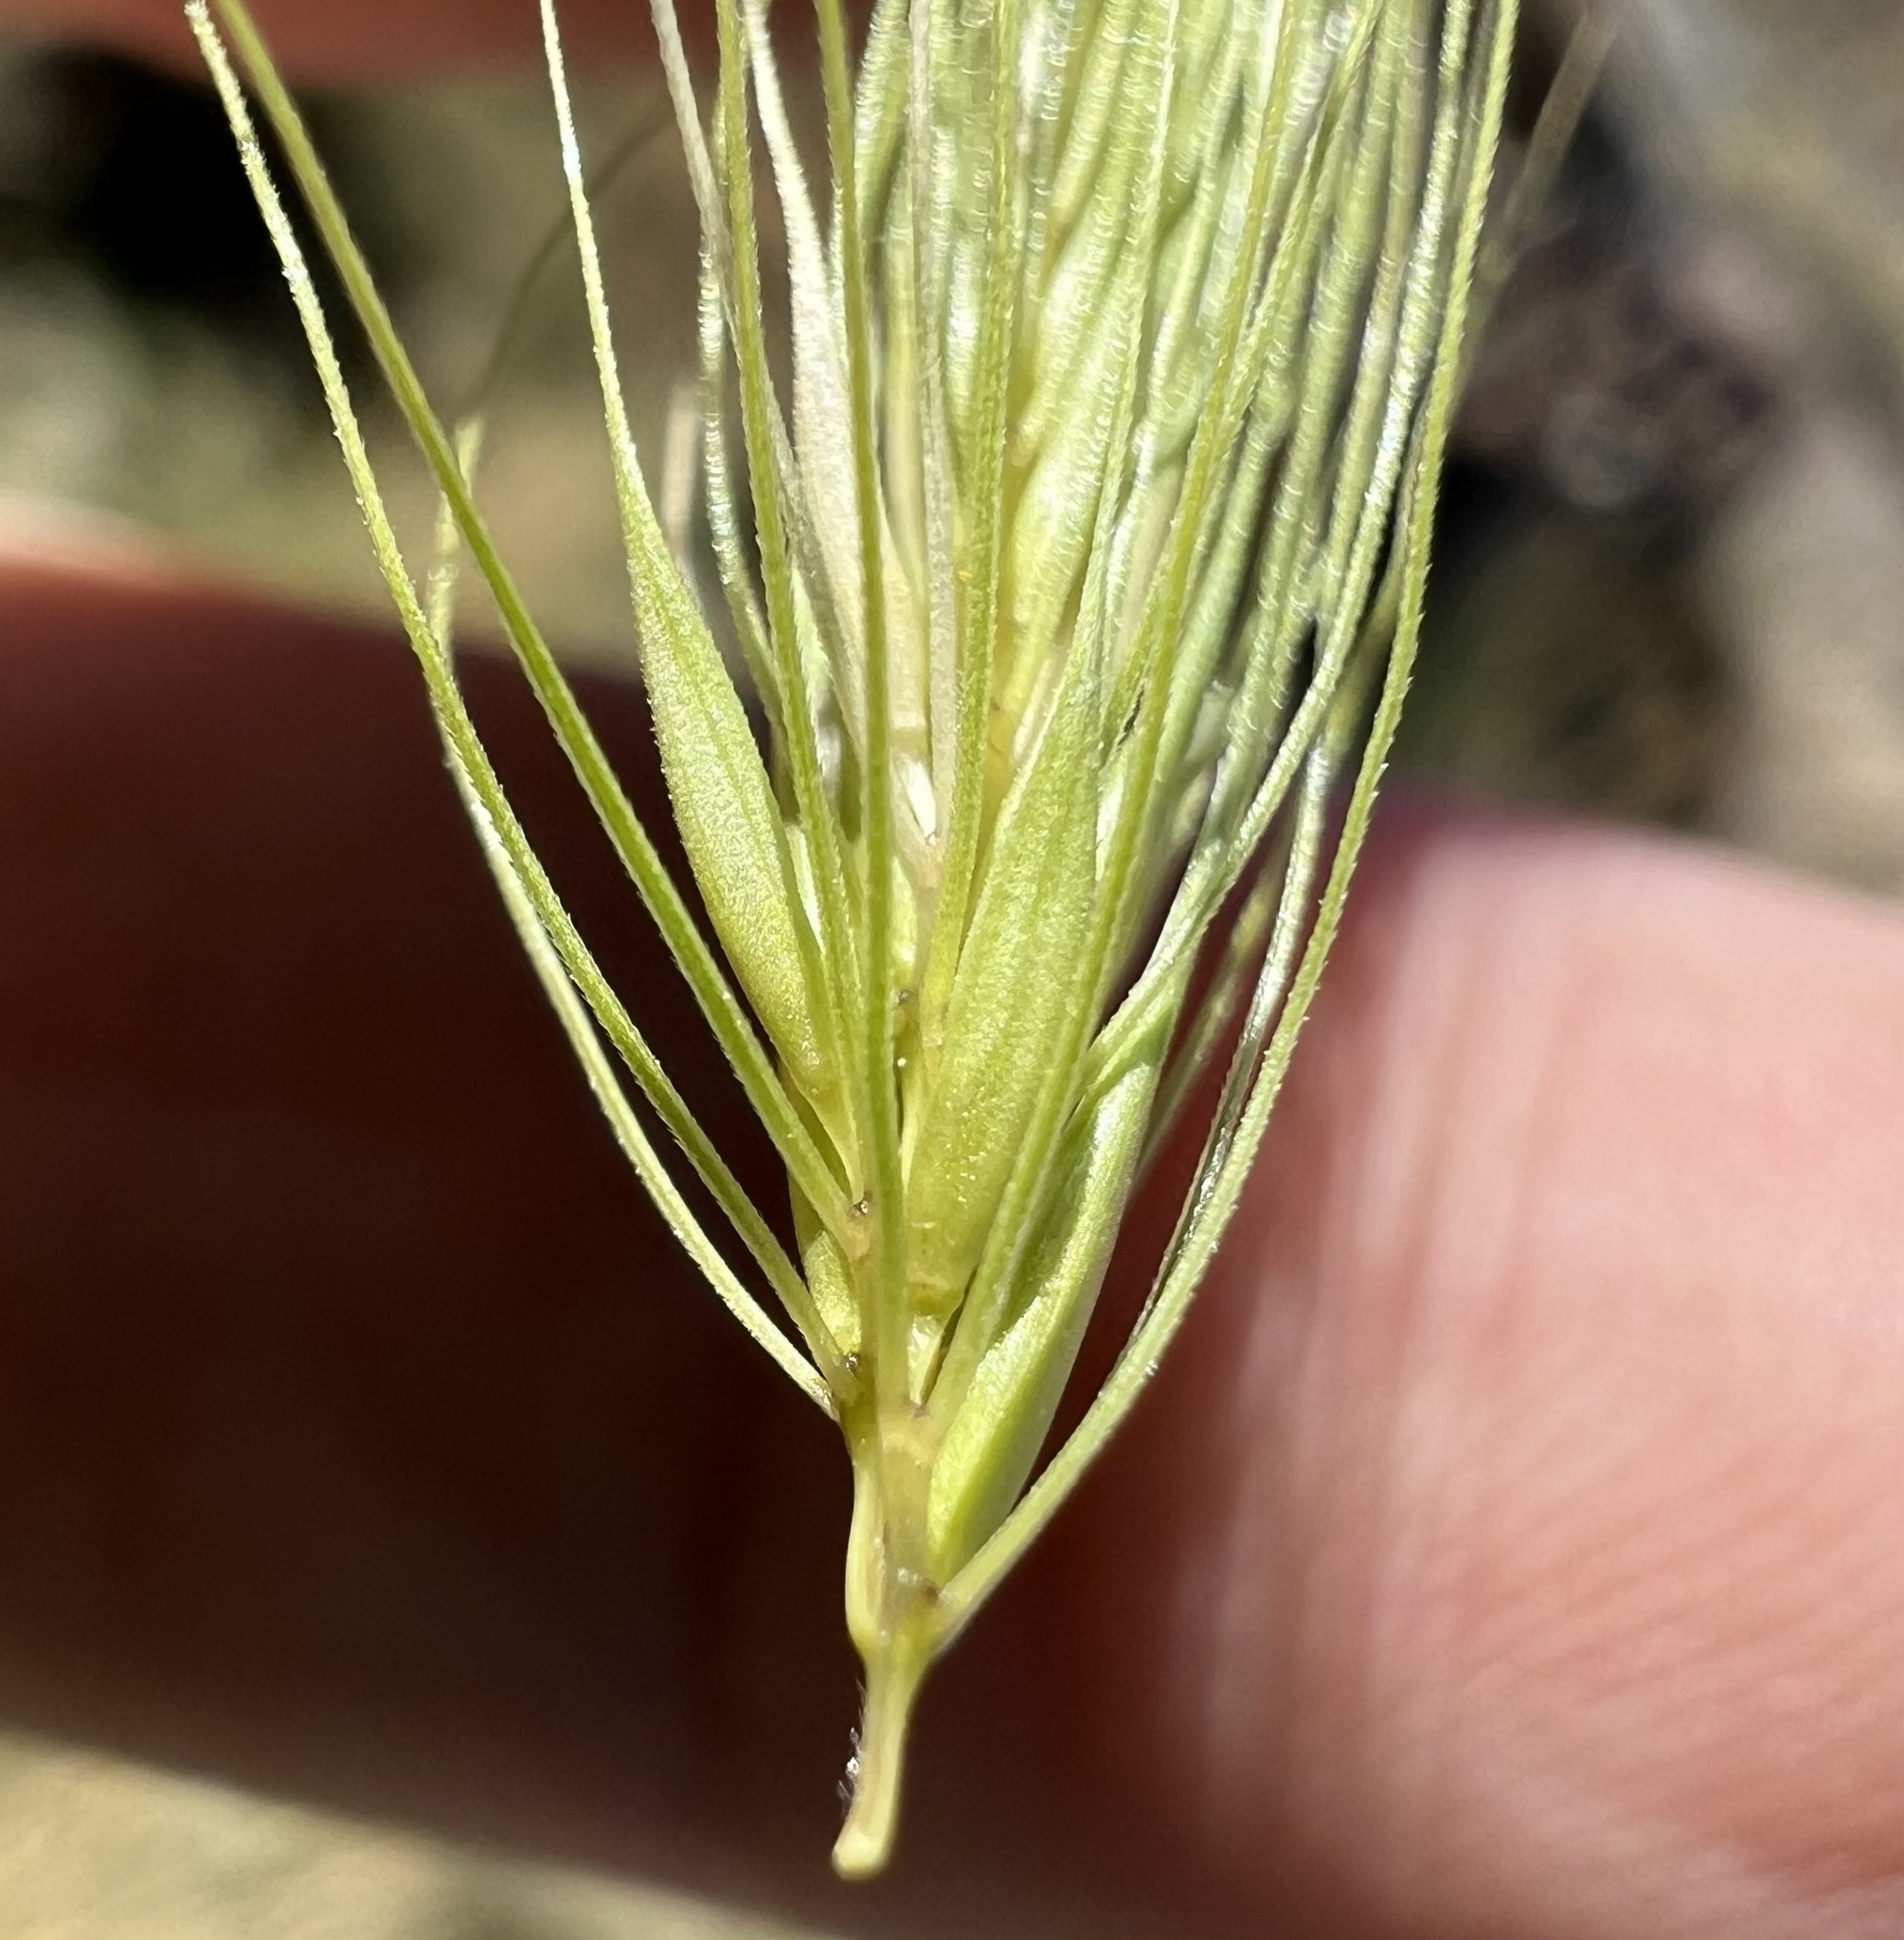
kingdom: Plantae
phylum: Tracheophyta
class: Liliopsida
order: Poales
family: Poaceae
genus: Hordeum
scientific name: Hordeum jubatum
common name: Foxtail barley
